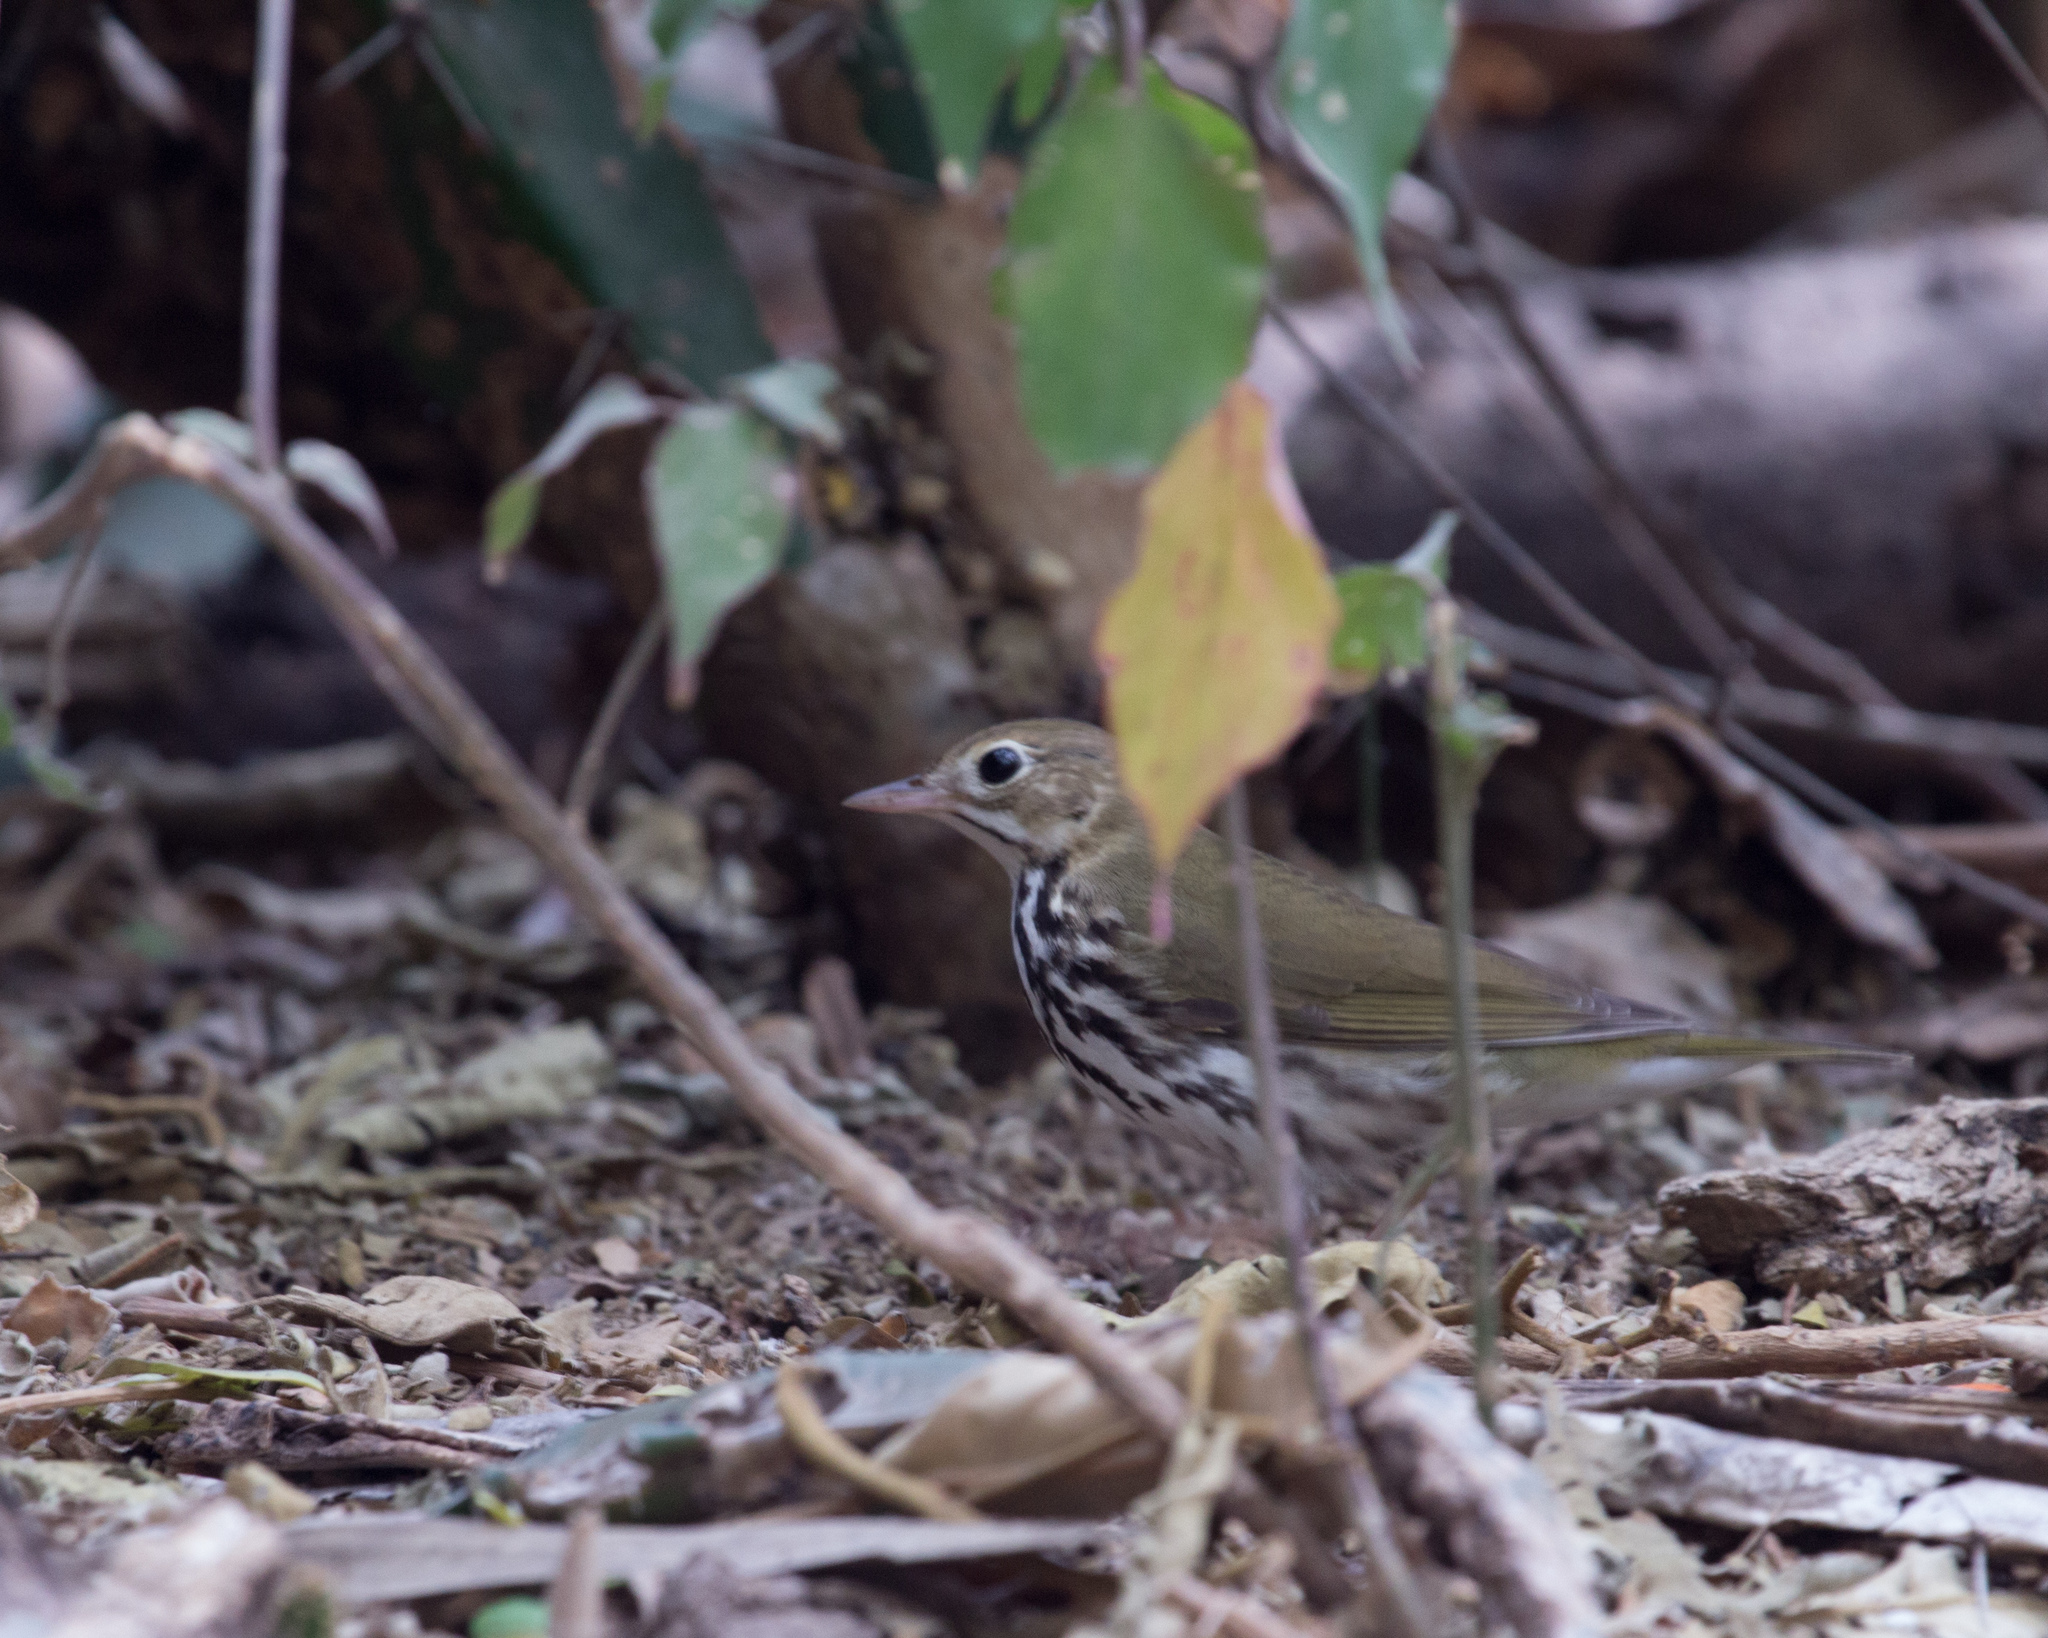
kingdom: Animalia
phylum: Chordata
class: Aves
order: Passeriformes
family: Parulidae
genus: Seiurus
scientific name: Seiurus aurocapilla
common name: Ovenbird
